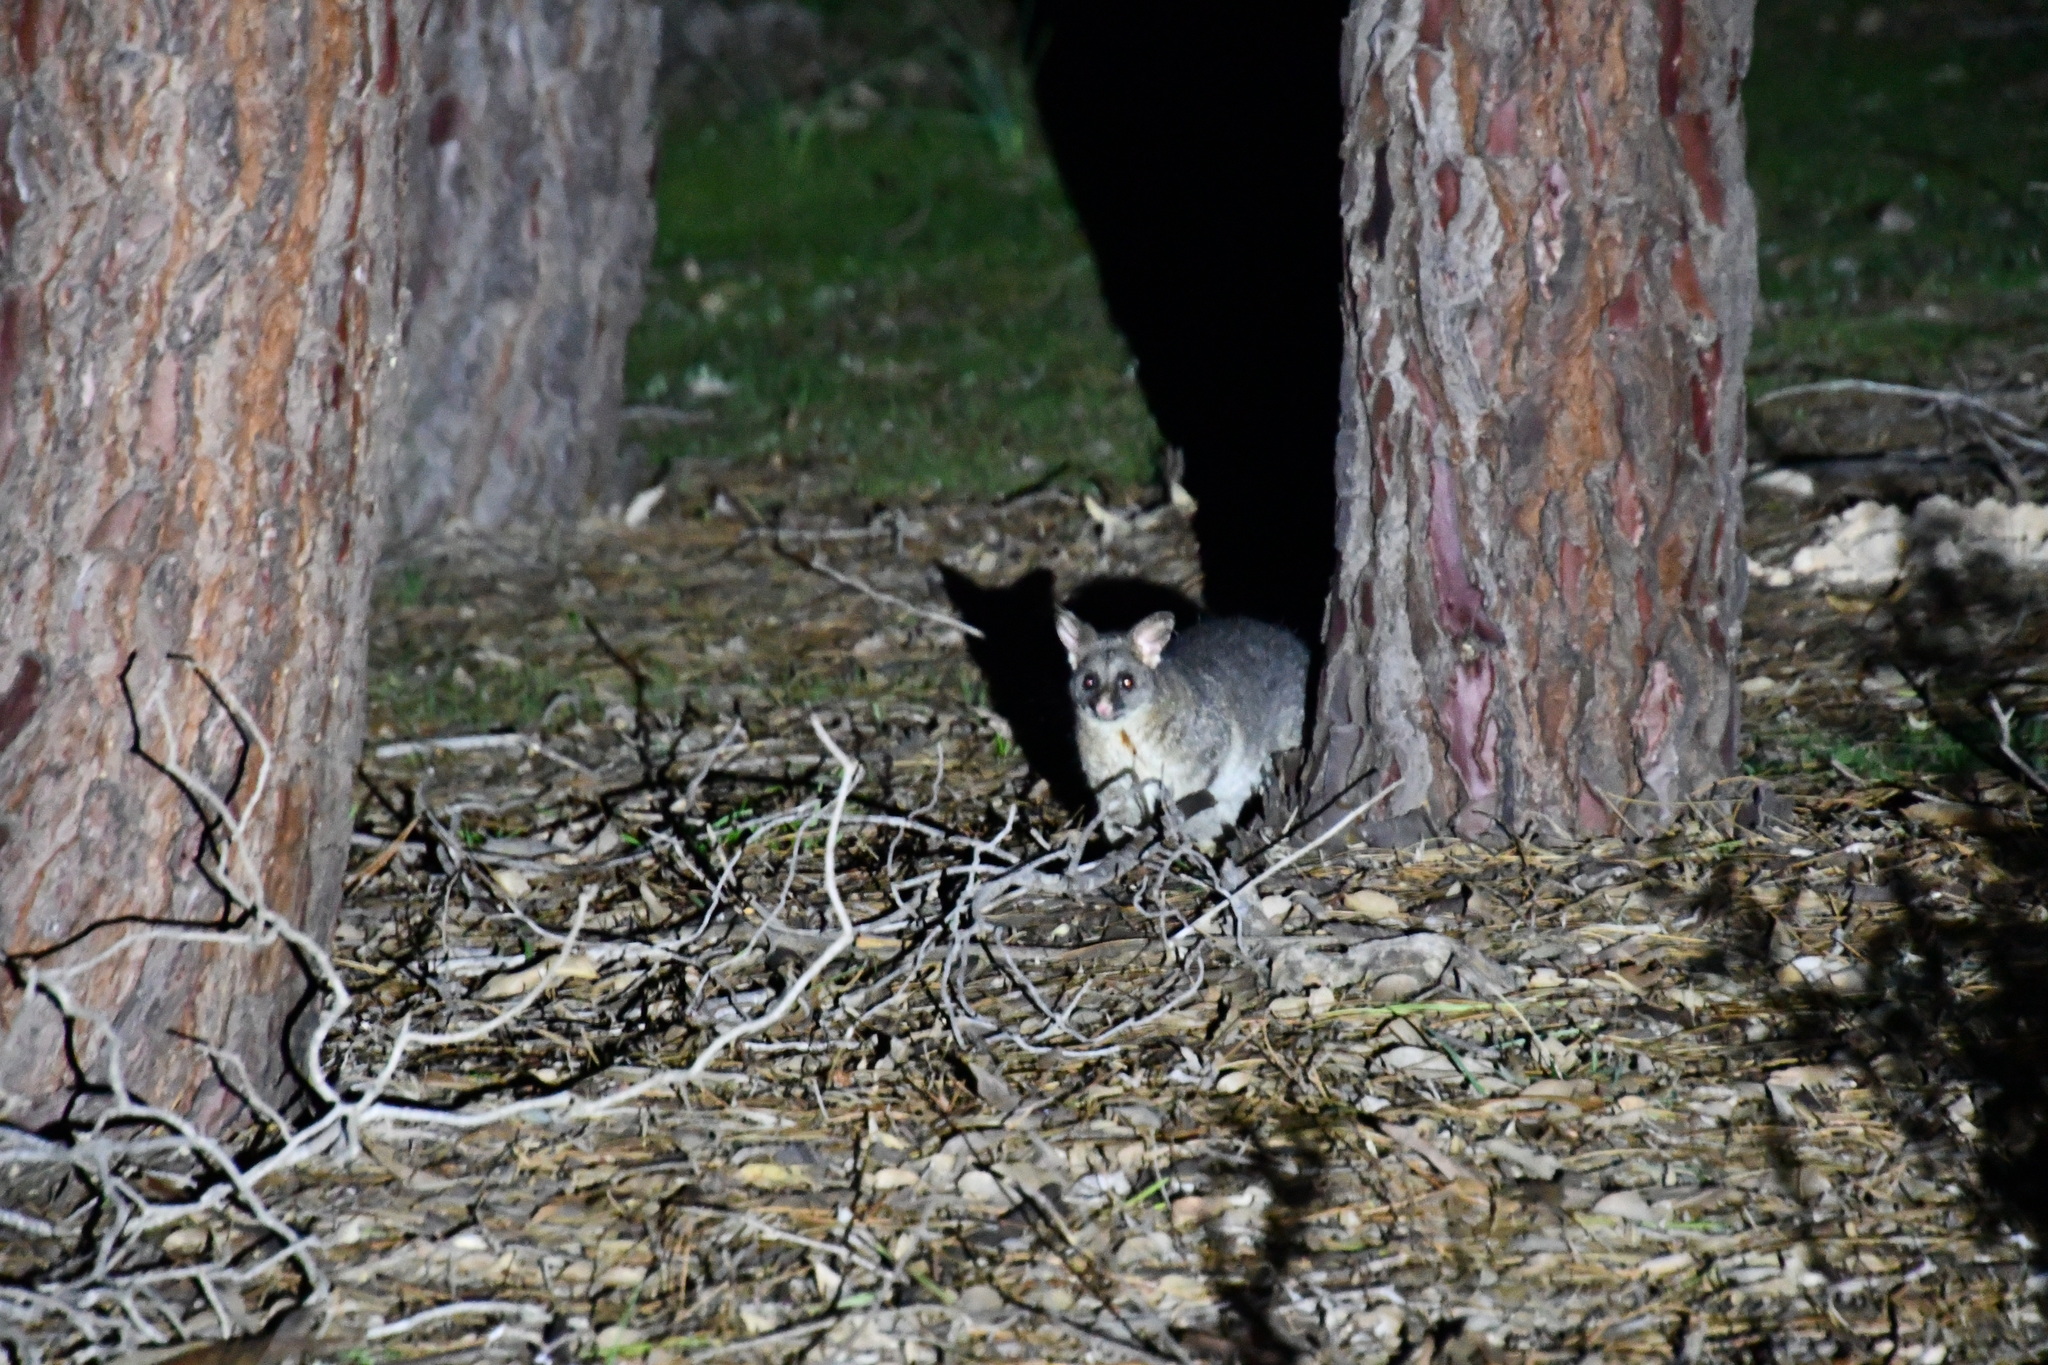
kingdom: Animalia
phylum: Chordata
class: Mammalia
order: Diprotodontia
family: Phalangeridae
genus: Trichosurus
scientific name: Trichosurus vulpecula
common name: Common brushtail
